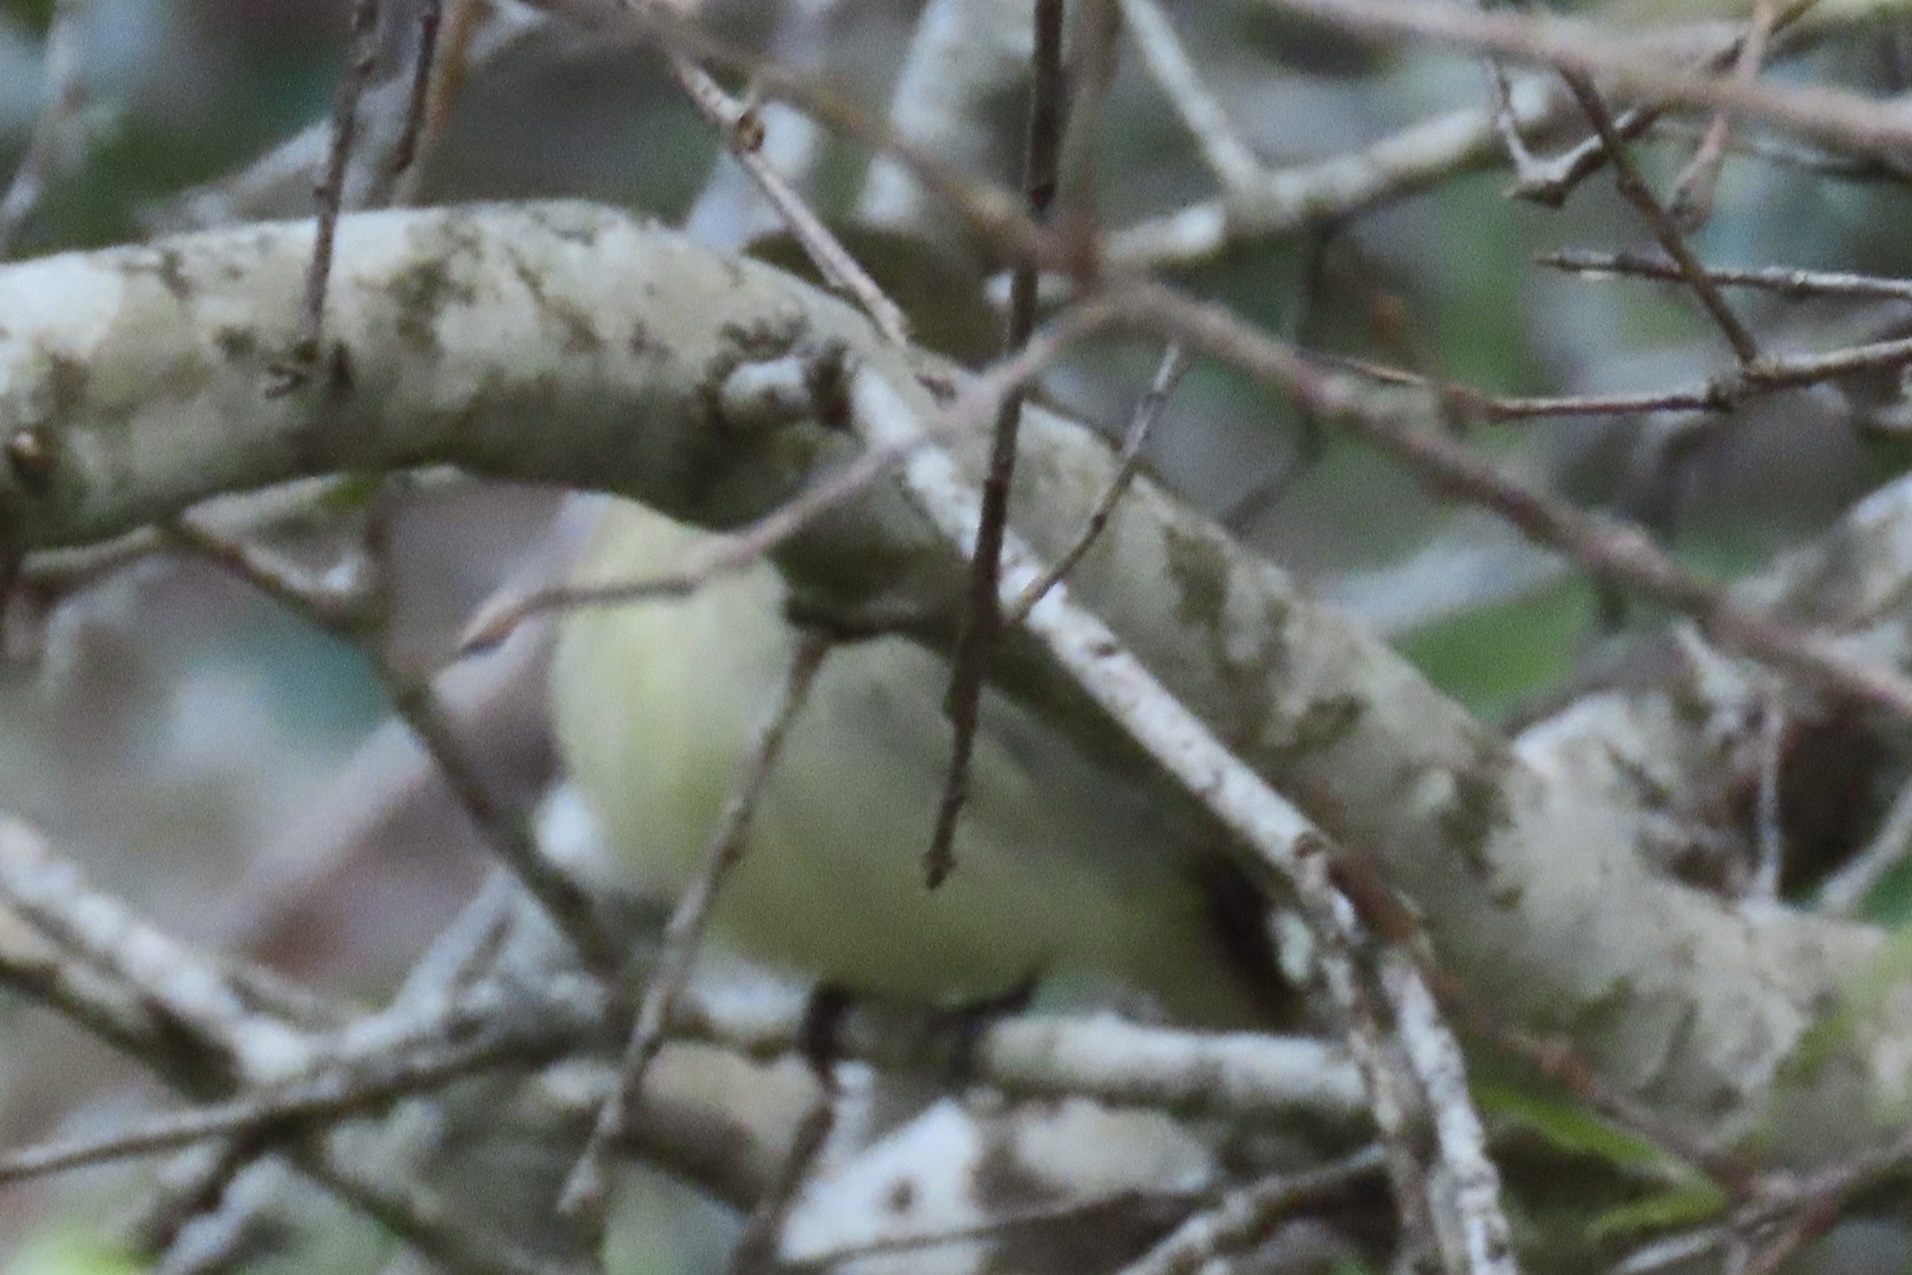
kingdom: Animalia
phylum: Chordata
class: Aves
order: Passeriformes
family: Tyrannidae
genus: Empidonax
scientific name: Empidonax difficilis
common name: Pacific-slope flycatcher
